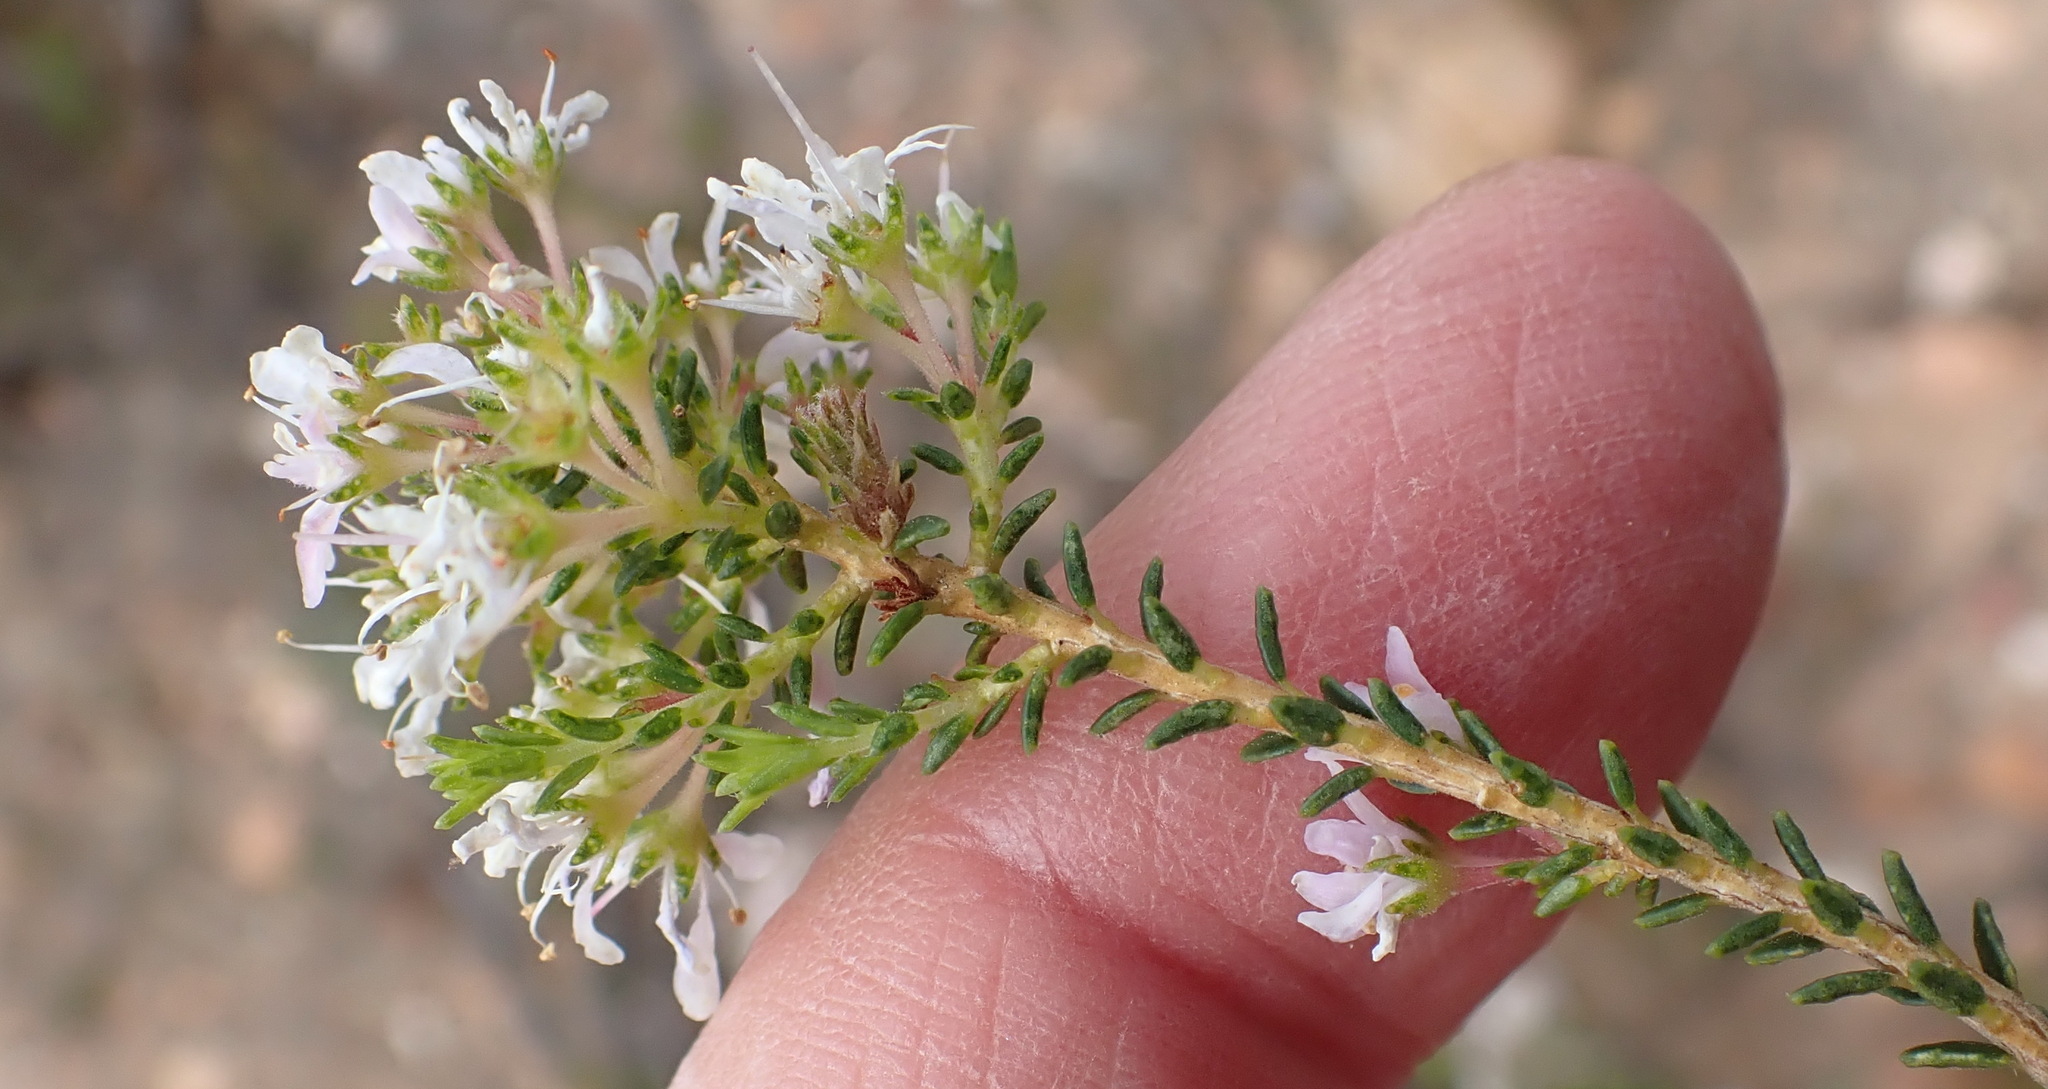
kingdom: Plantae
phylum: Tracheophyta
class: Magnoliopsida
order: Sapindales
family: Rutaceae
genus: Agathosma
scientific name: Agathosma capensis
